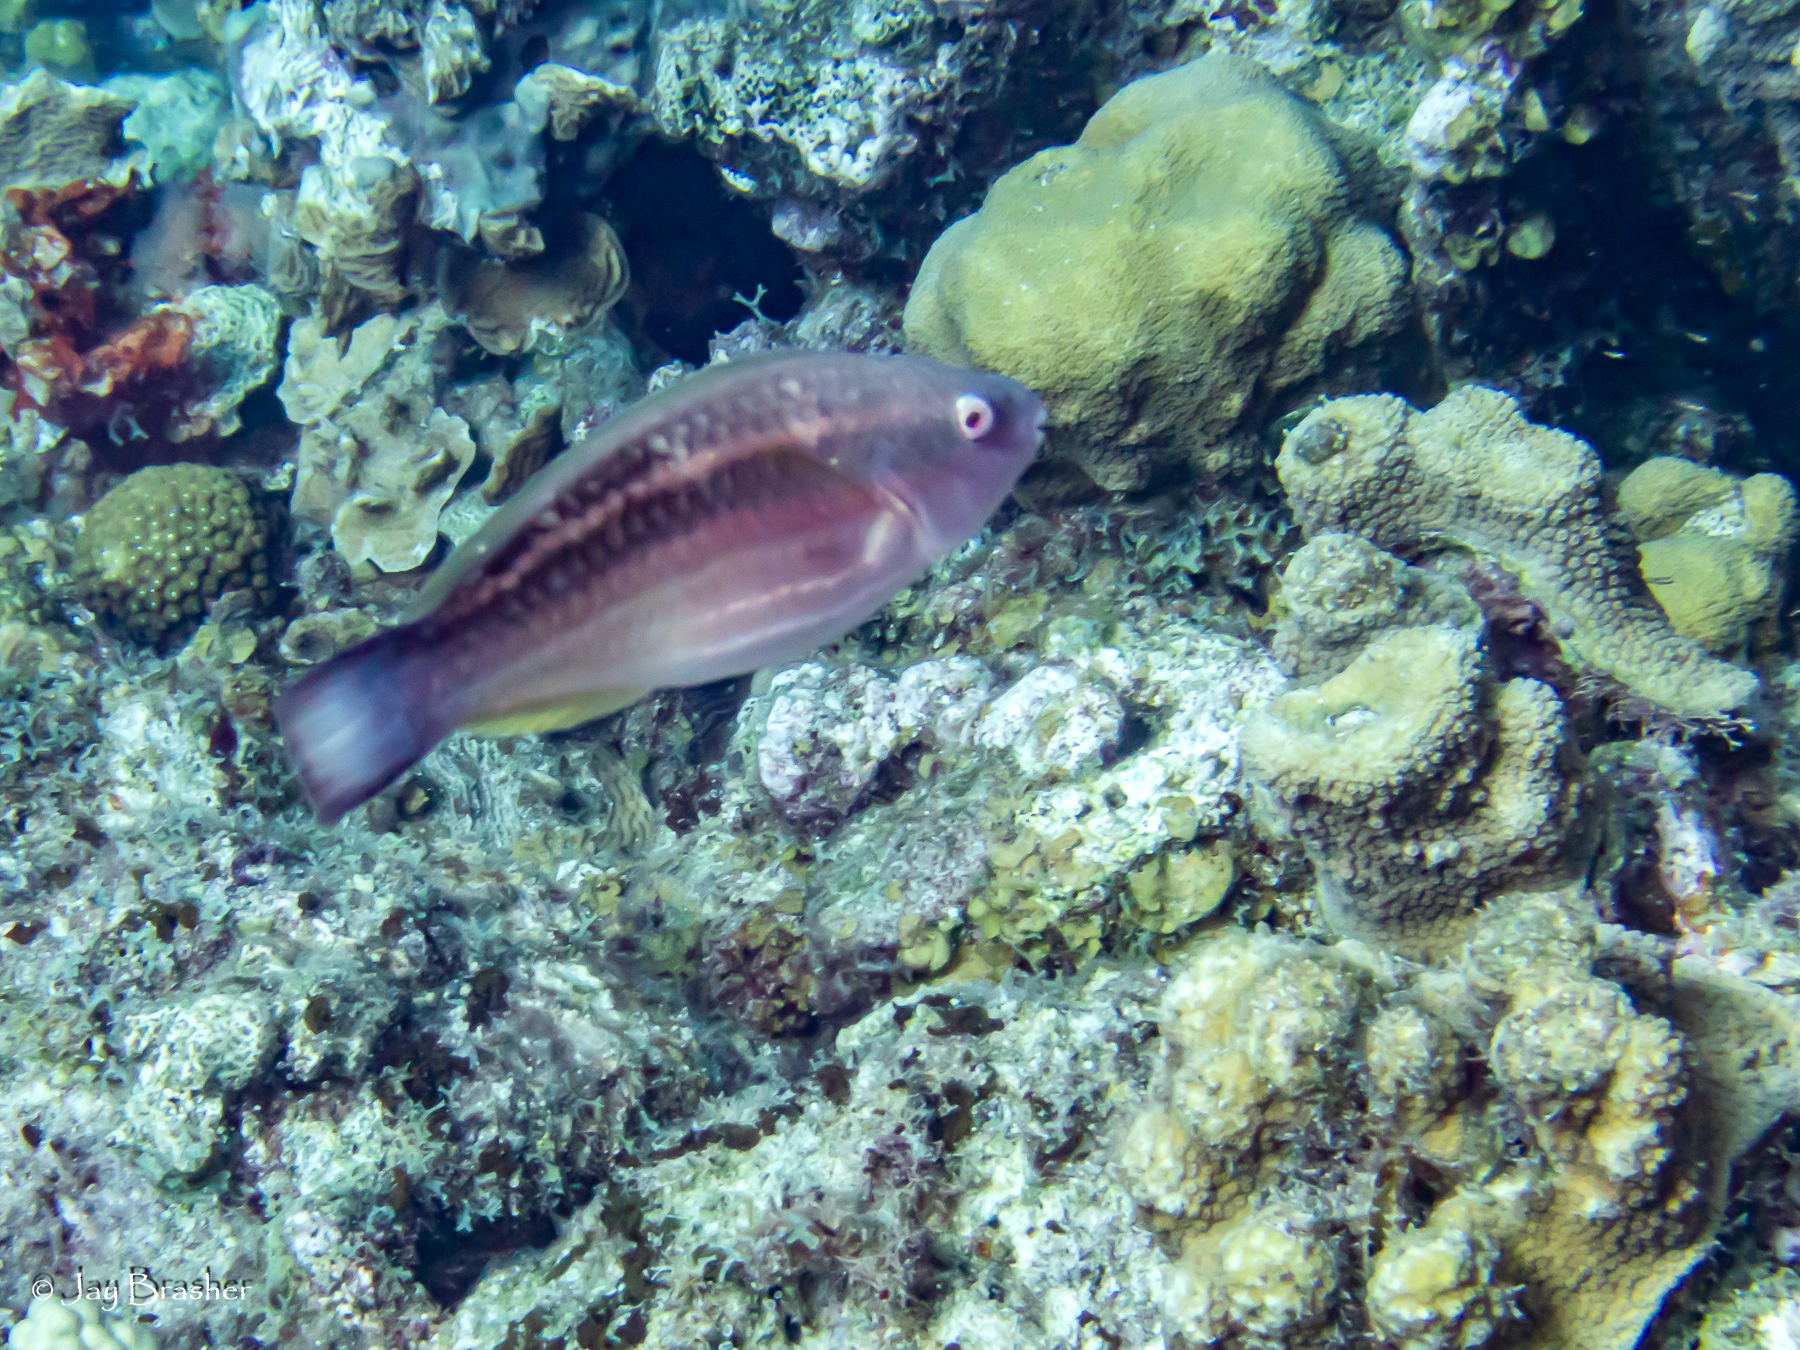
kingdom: Animalia
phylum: Chordata
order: Perciformes
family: Scaridae
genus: Scarus
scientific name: Scarus taeniopterus
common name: Princess parrotfish
